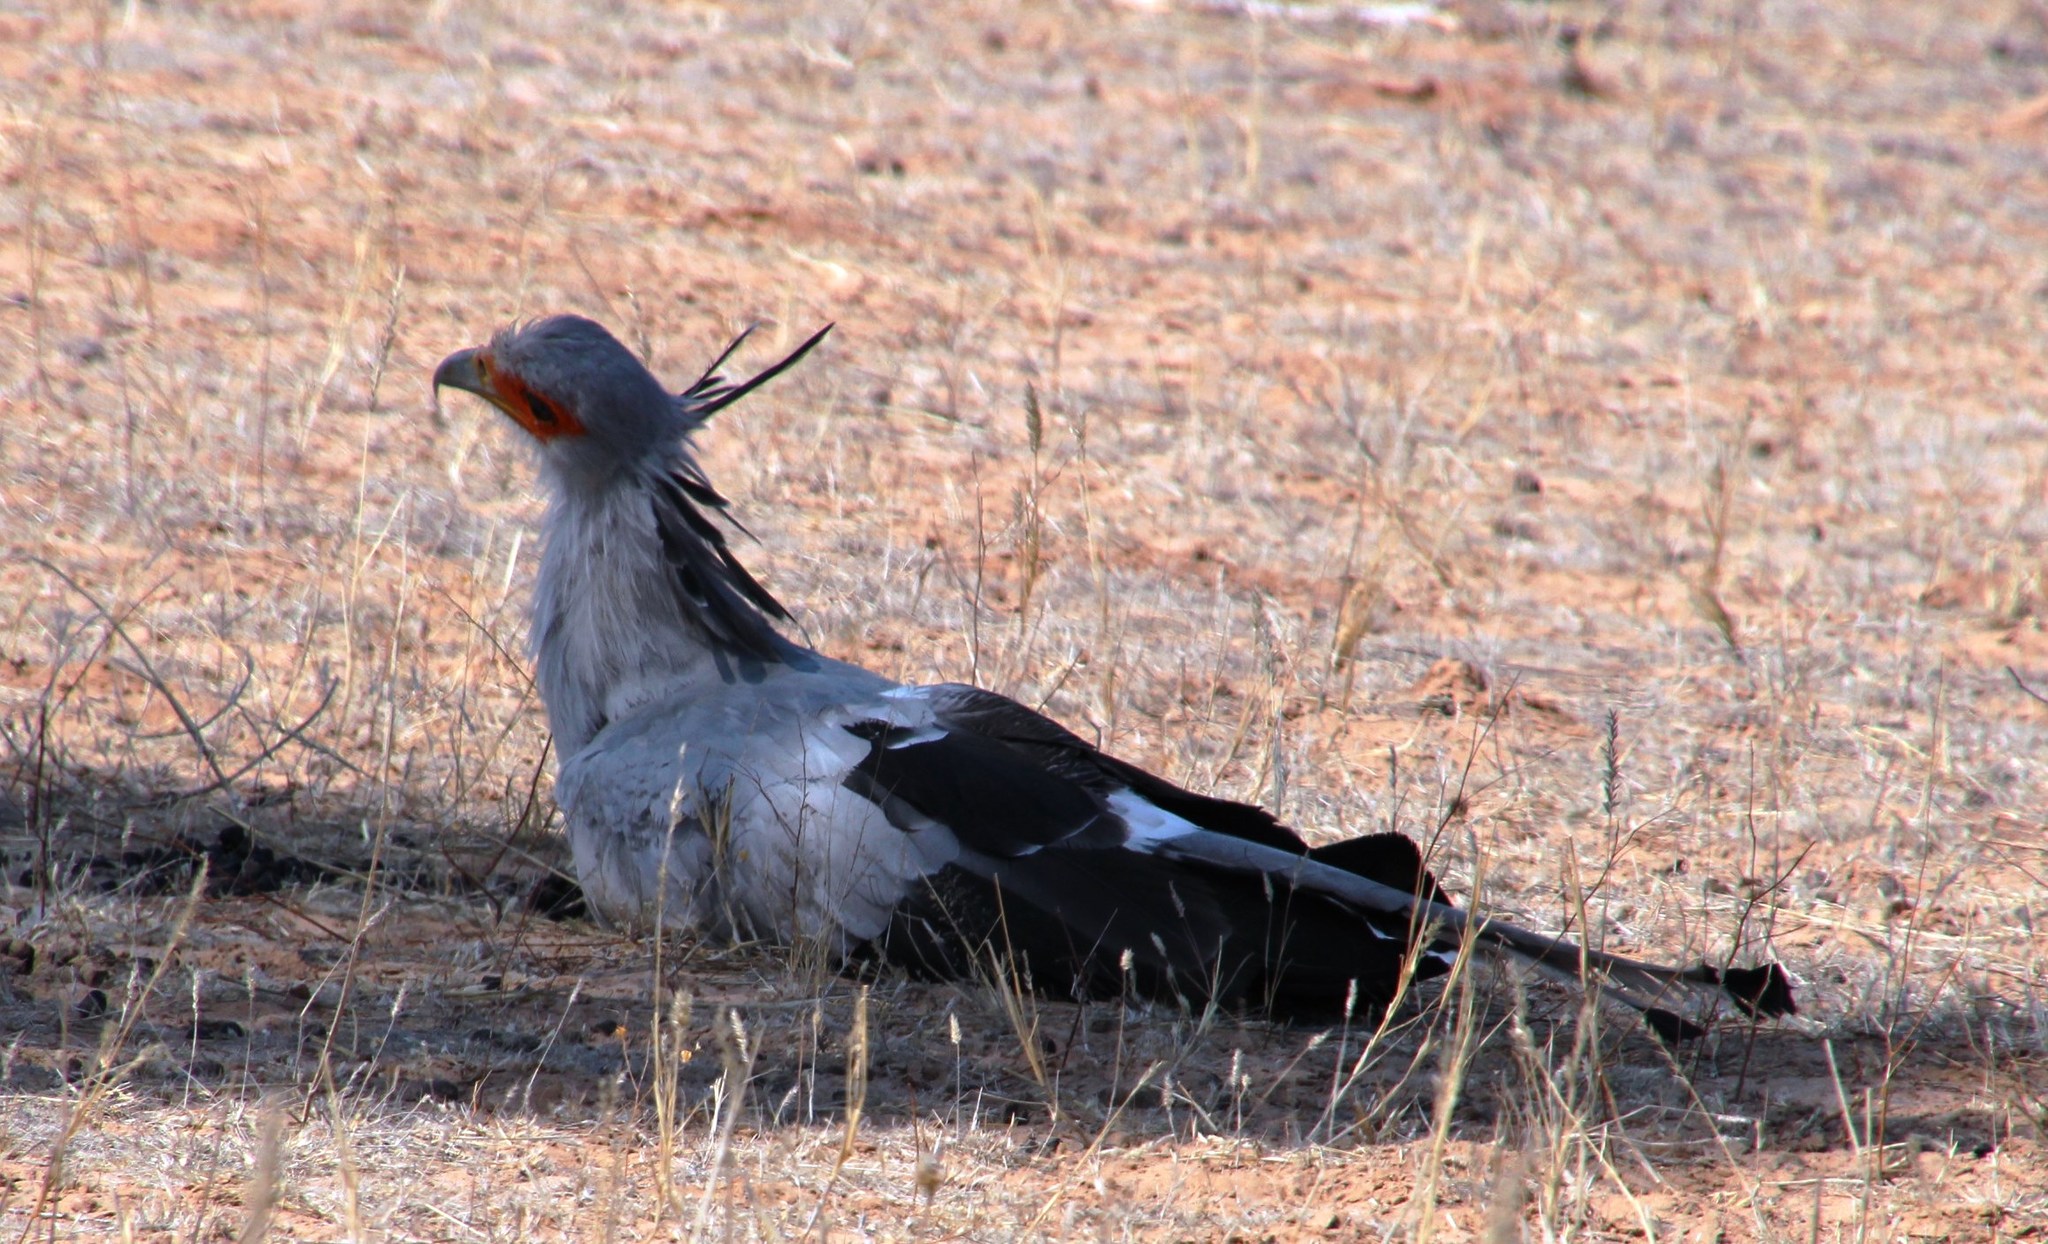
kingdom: Animalia
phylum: Chordata
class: Aves
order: Accipitriformes
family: Sagittariidae
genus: Sagittarius
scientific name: Sagittarius serpentarius
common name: Secretarybird
